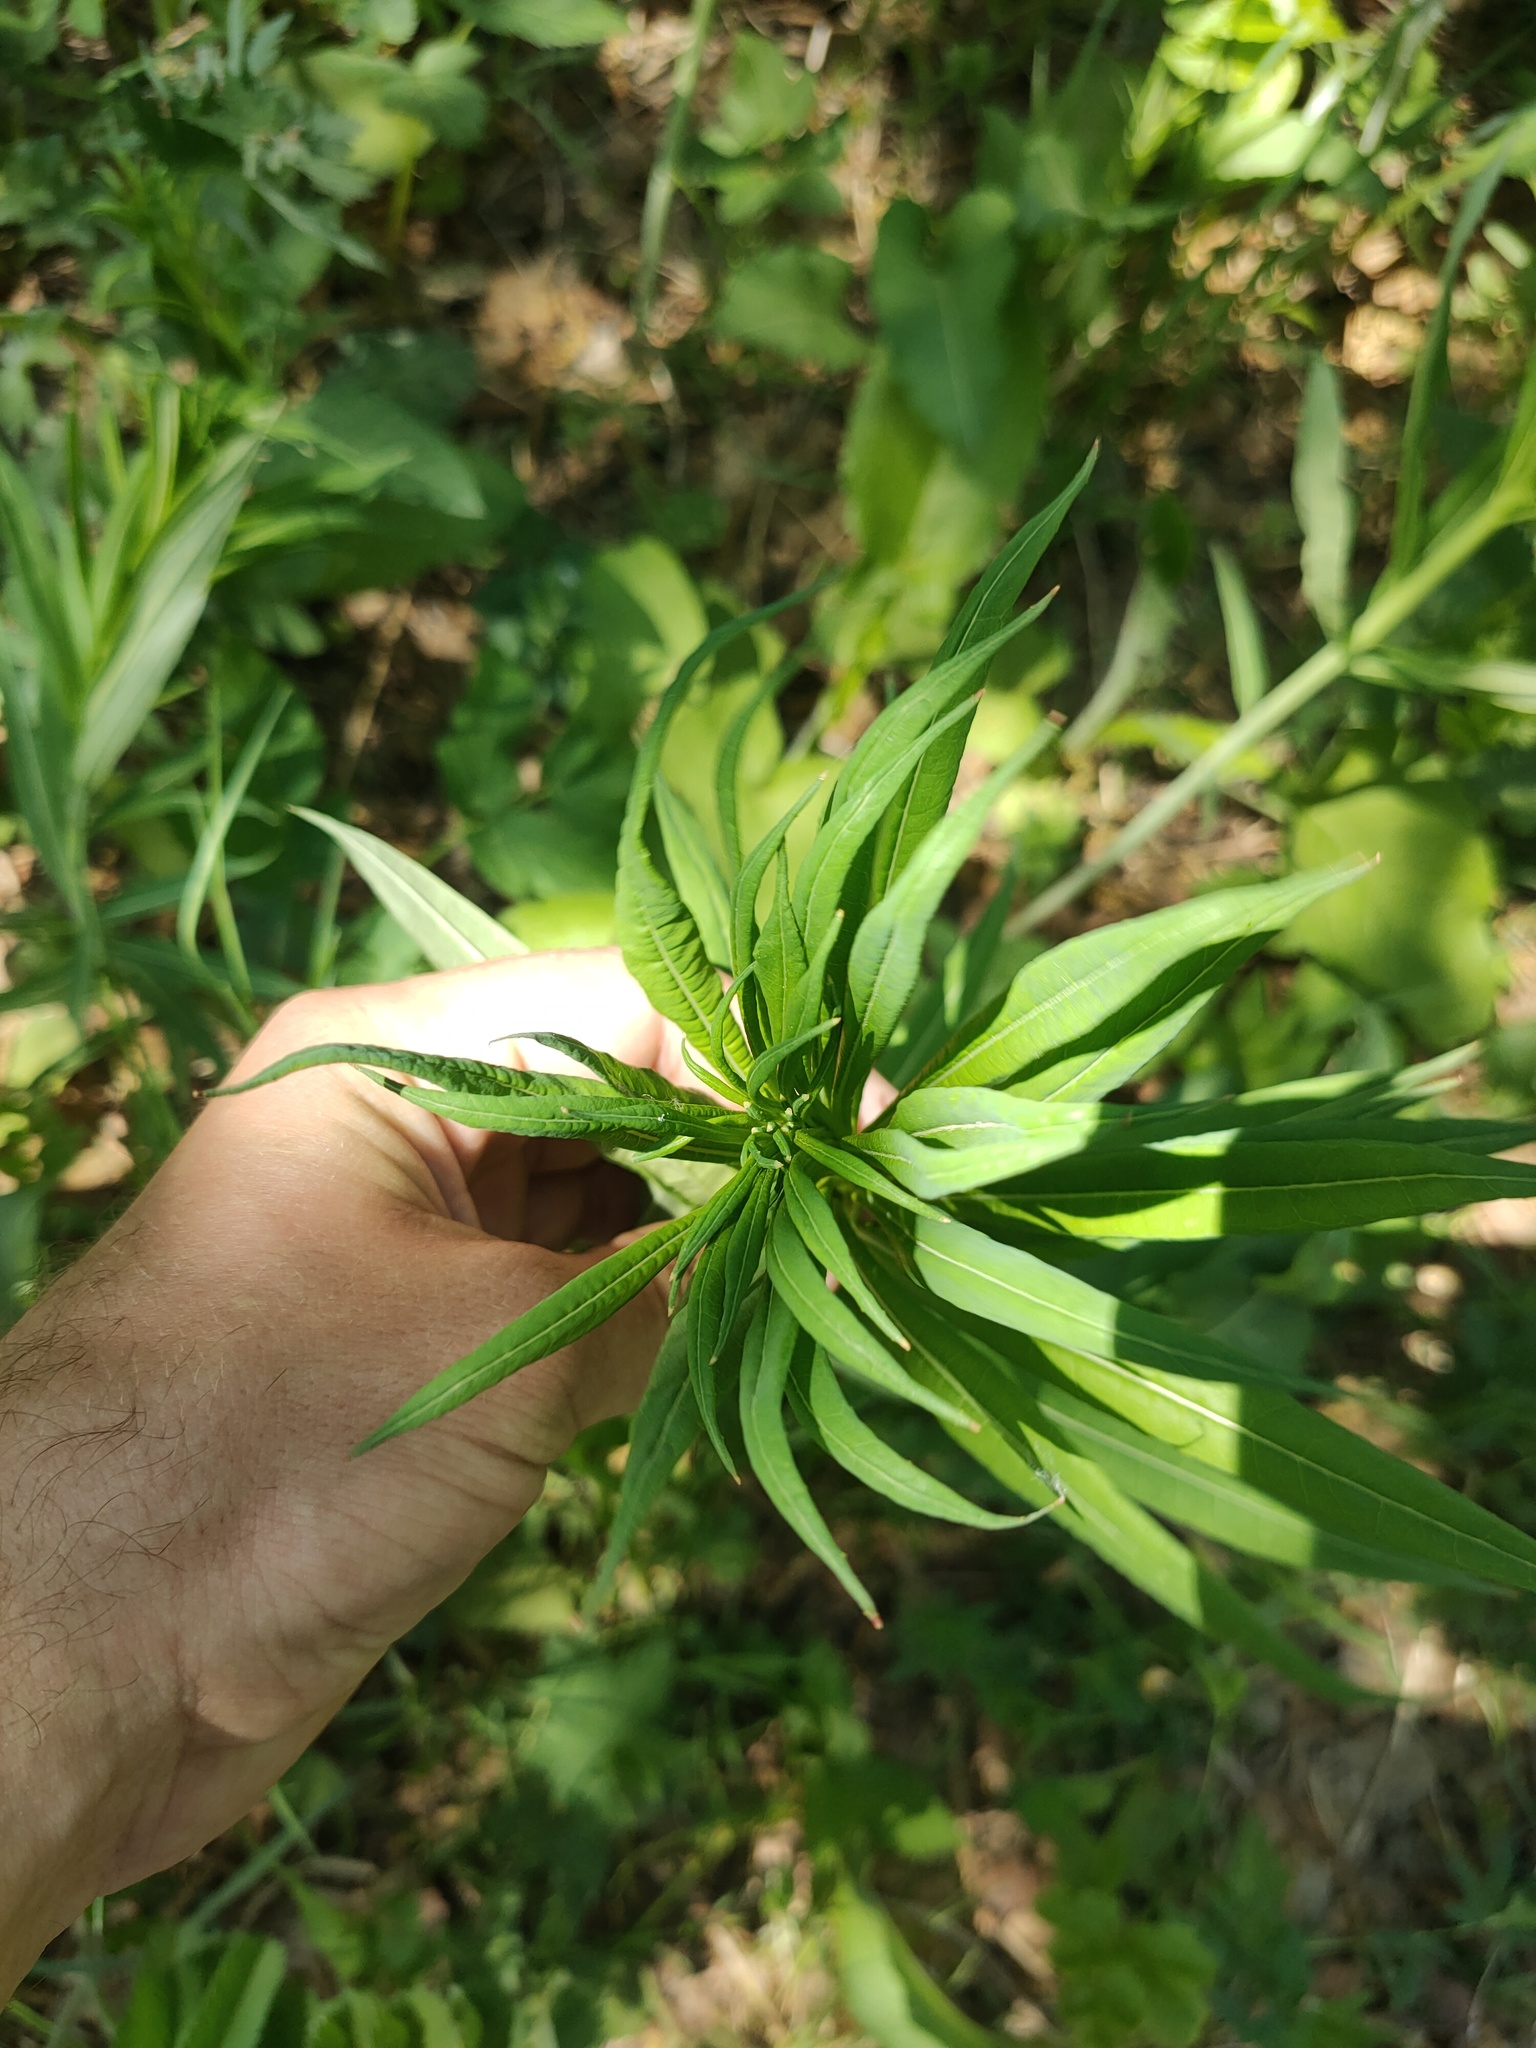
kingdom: Plantae
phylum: Tracheophyta
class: Magnoliopsida
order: Myrtales
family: Onagraceae
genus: Chamaenerion
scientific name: Chamaenerion angustifolium
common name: Fireweed
